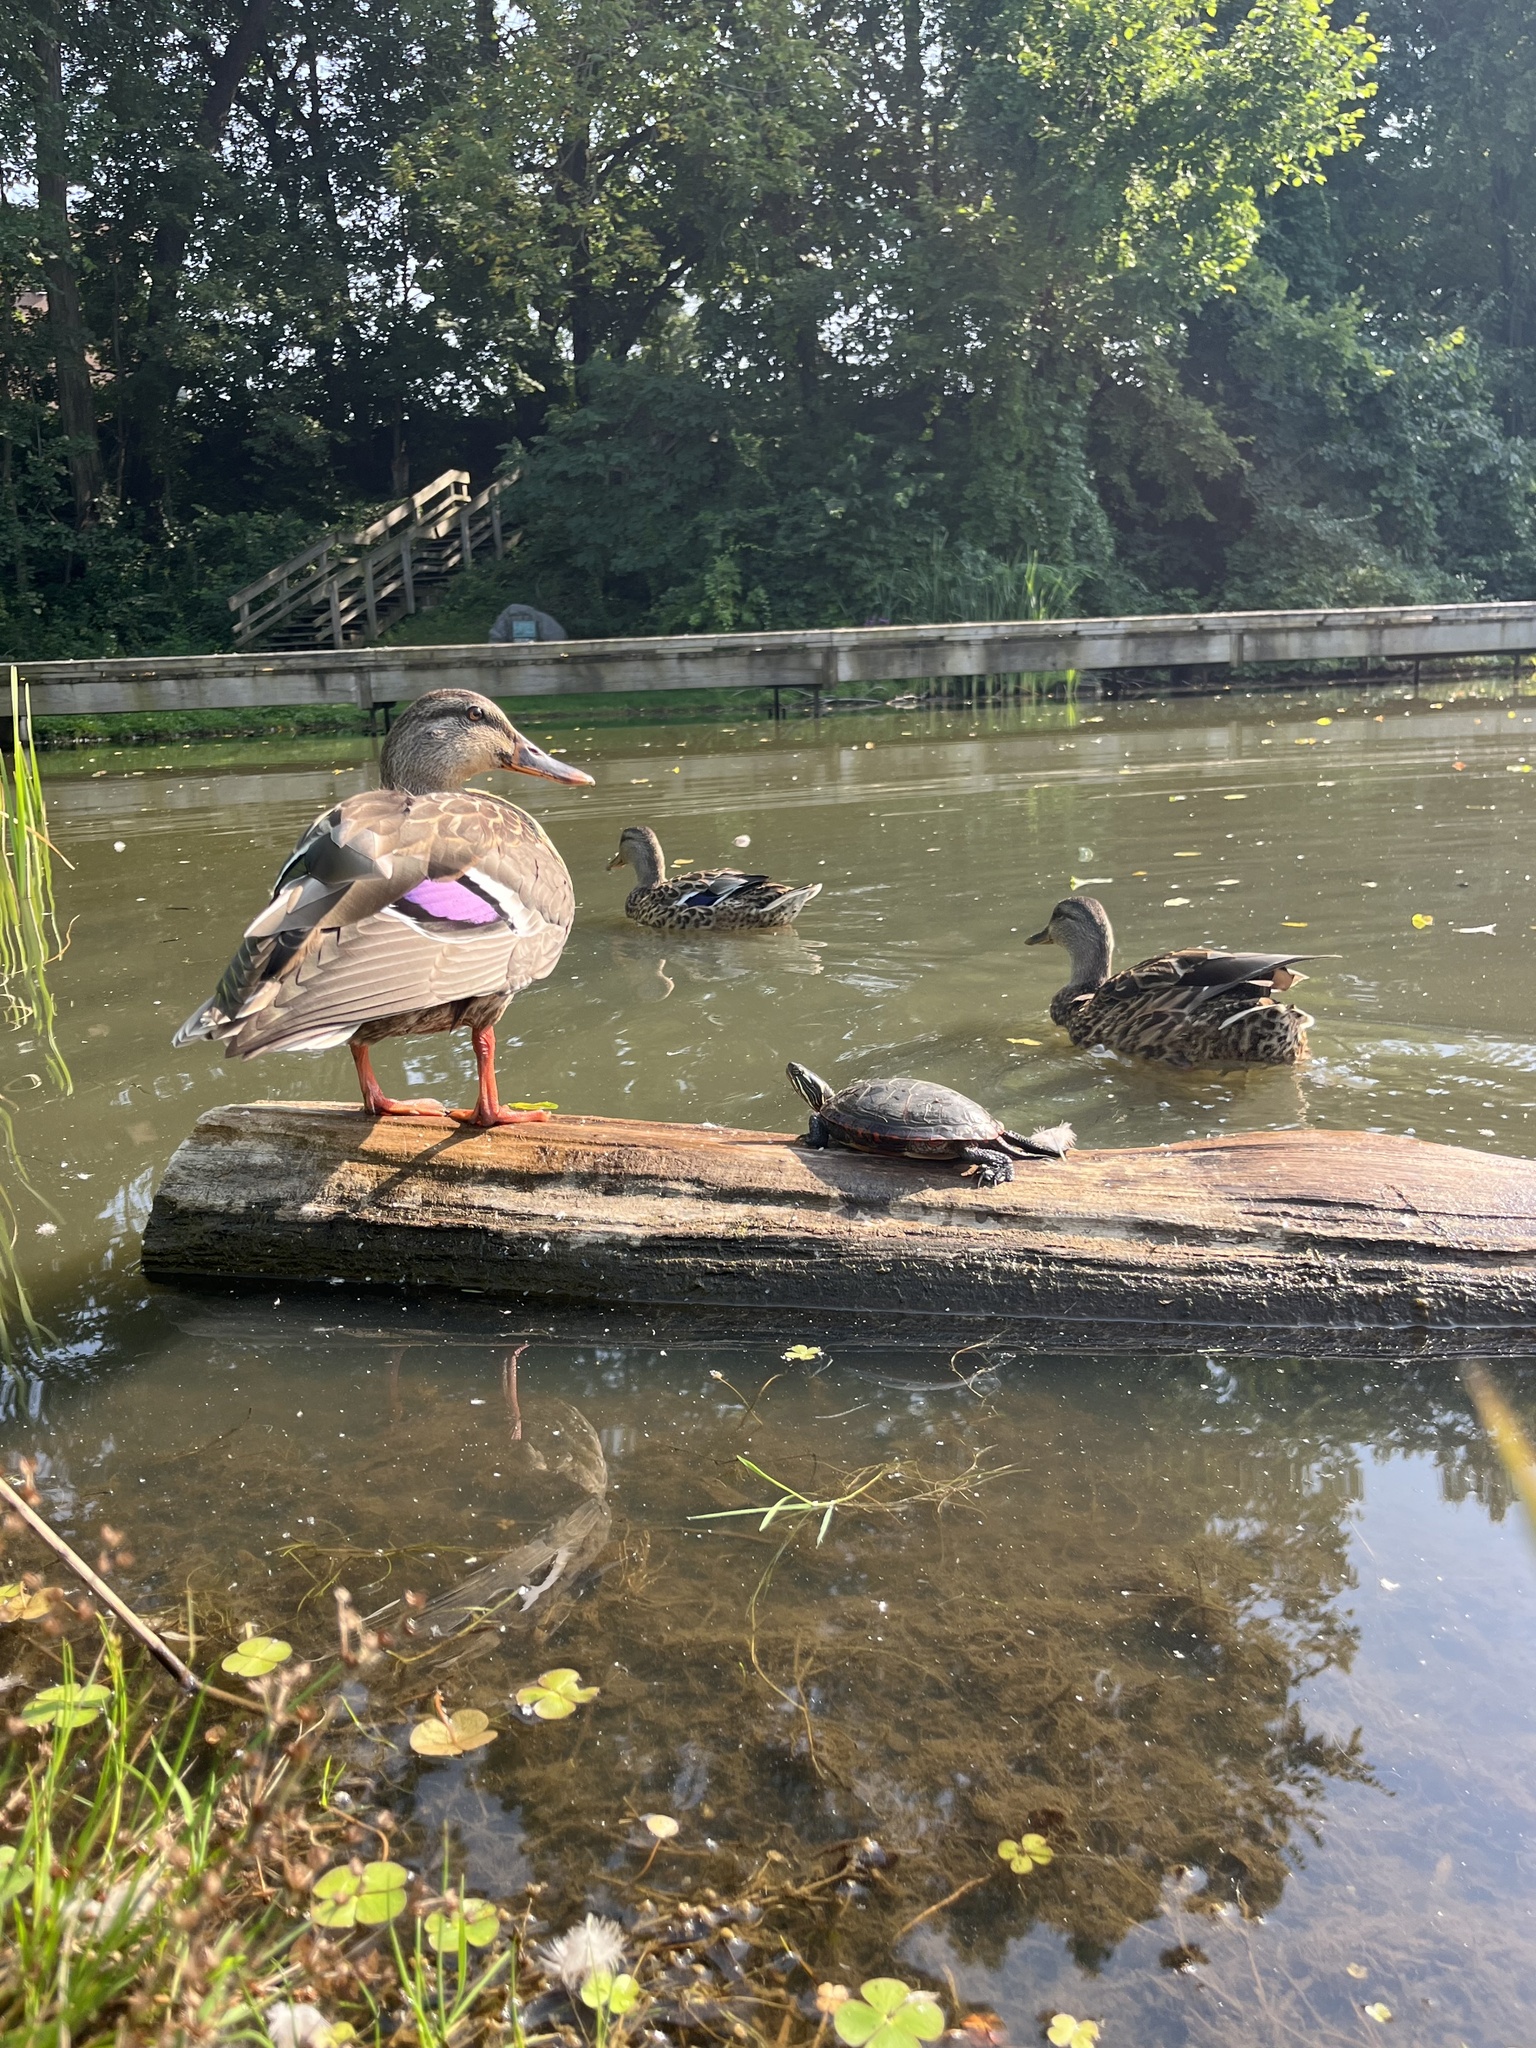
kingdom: Animalia
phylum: Chordata
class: Testudines
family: Emydidae
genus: Chrysemys
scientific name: Chrysemys picta
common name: Painted turtle
